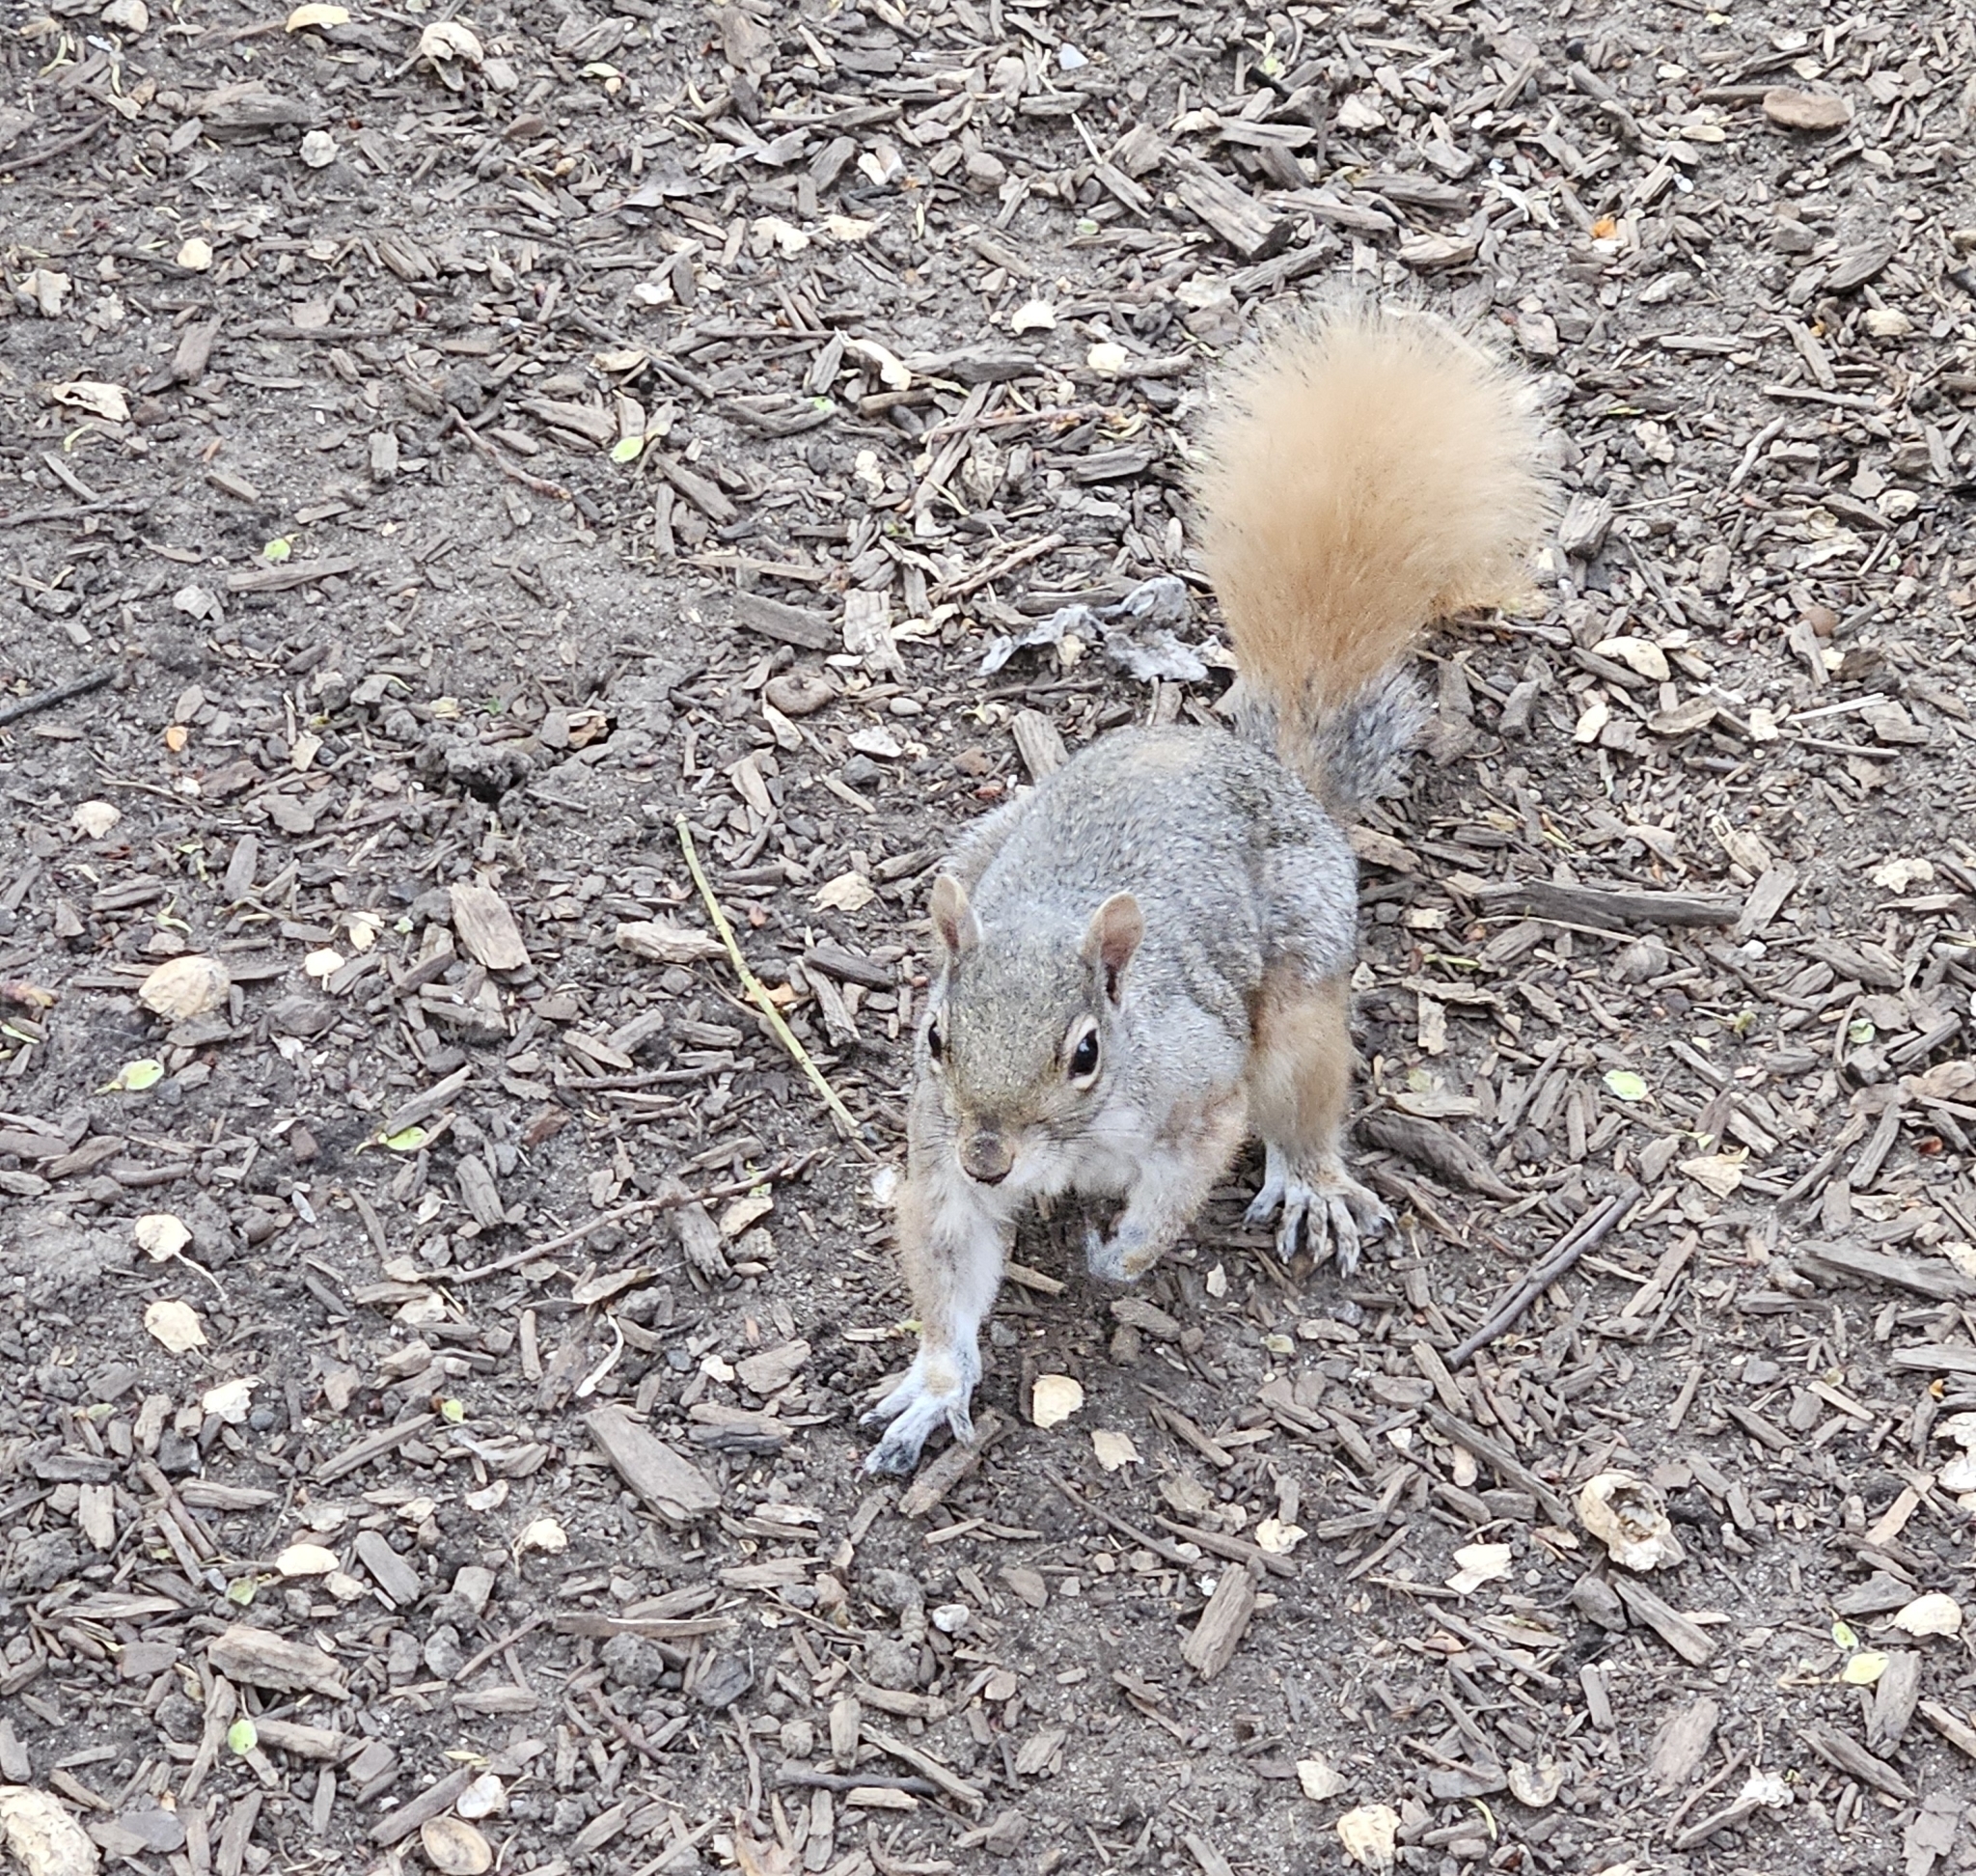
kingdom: Animalia
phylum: Chordata
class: Mammalia
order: Rodentia
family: Sciuridae
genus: Sciurus
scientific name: Sciurus carolinensis
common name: Eastern gray squirrel
